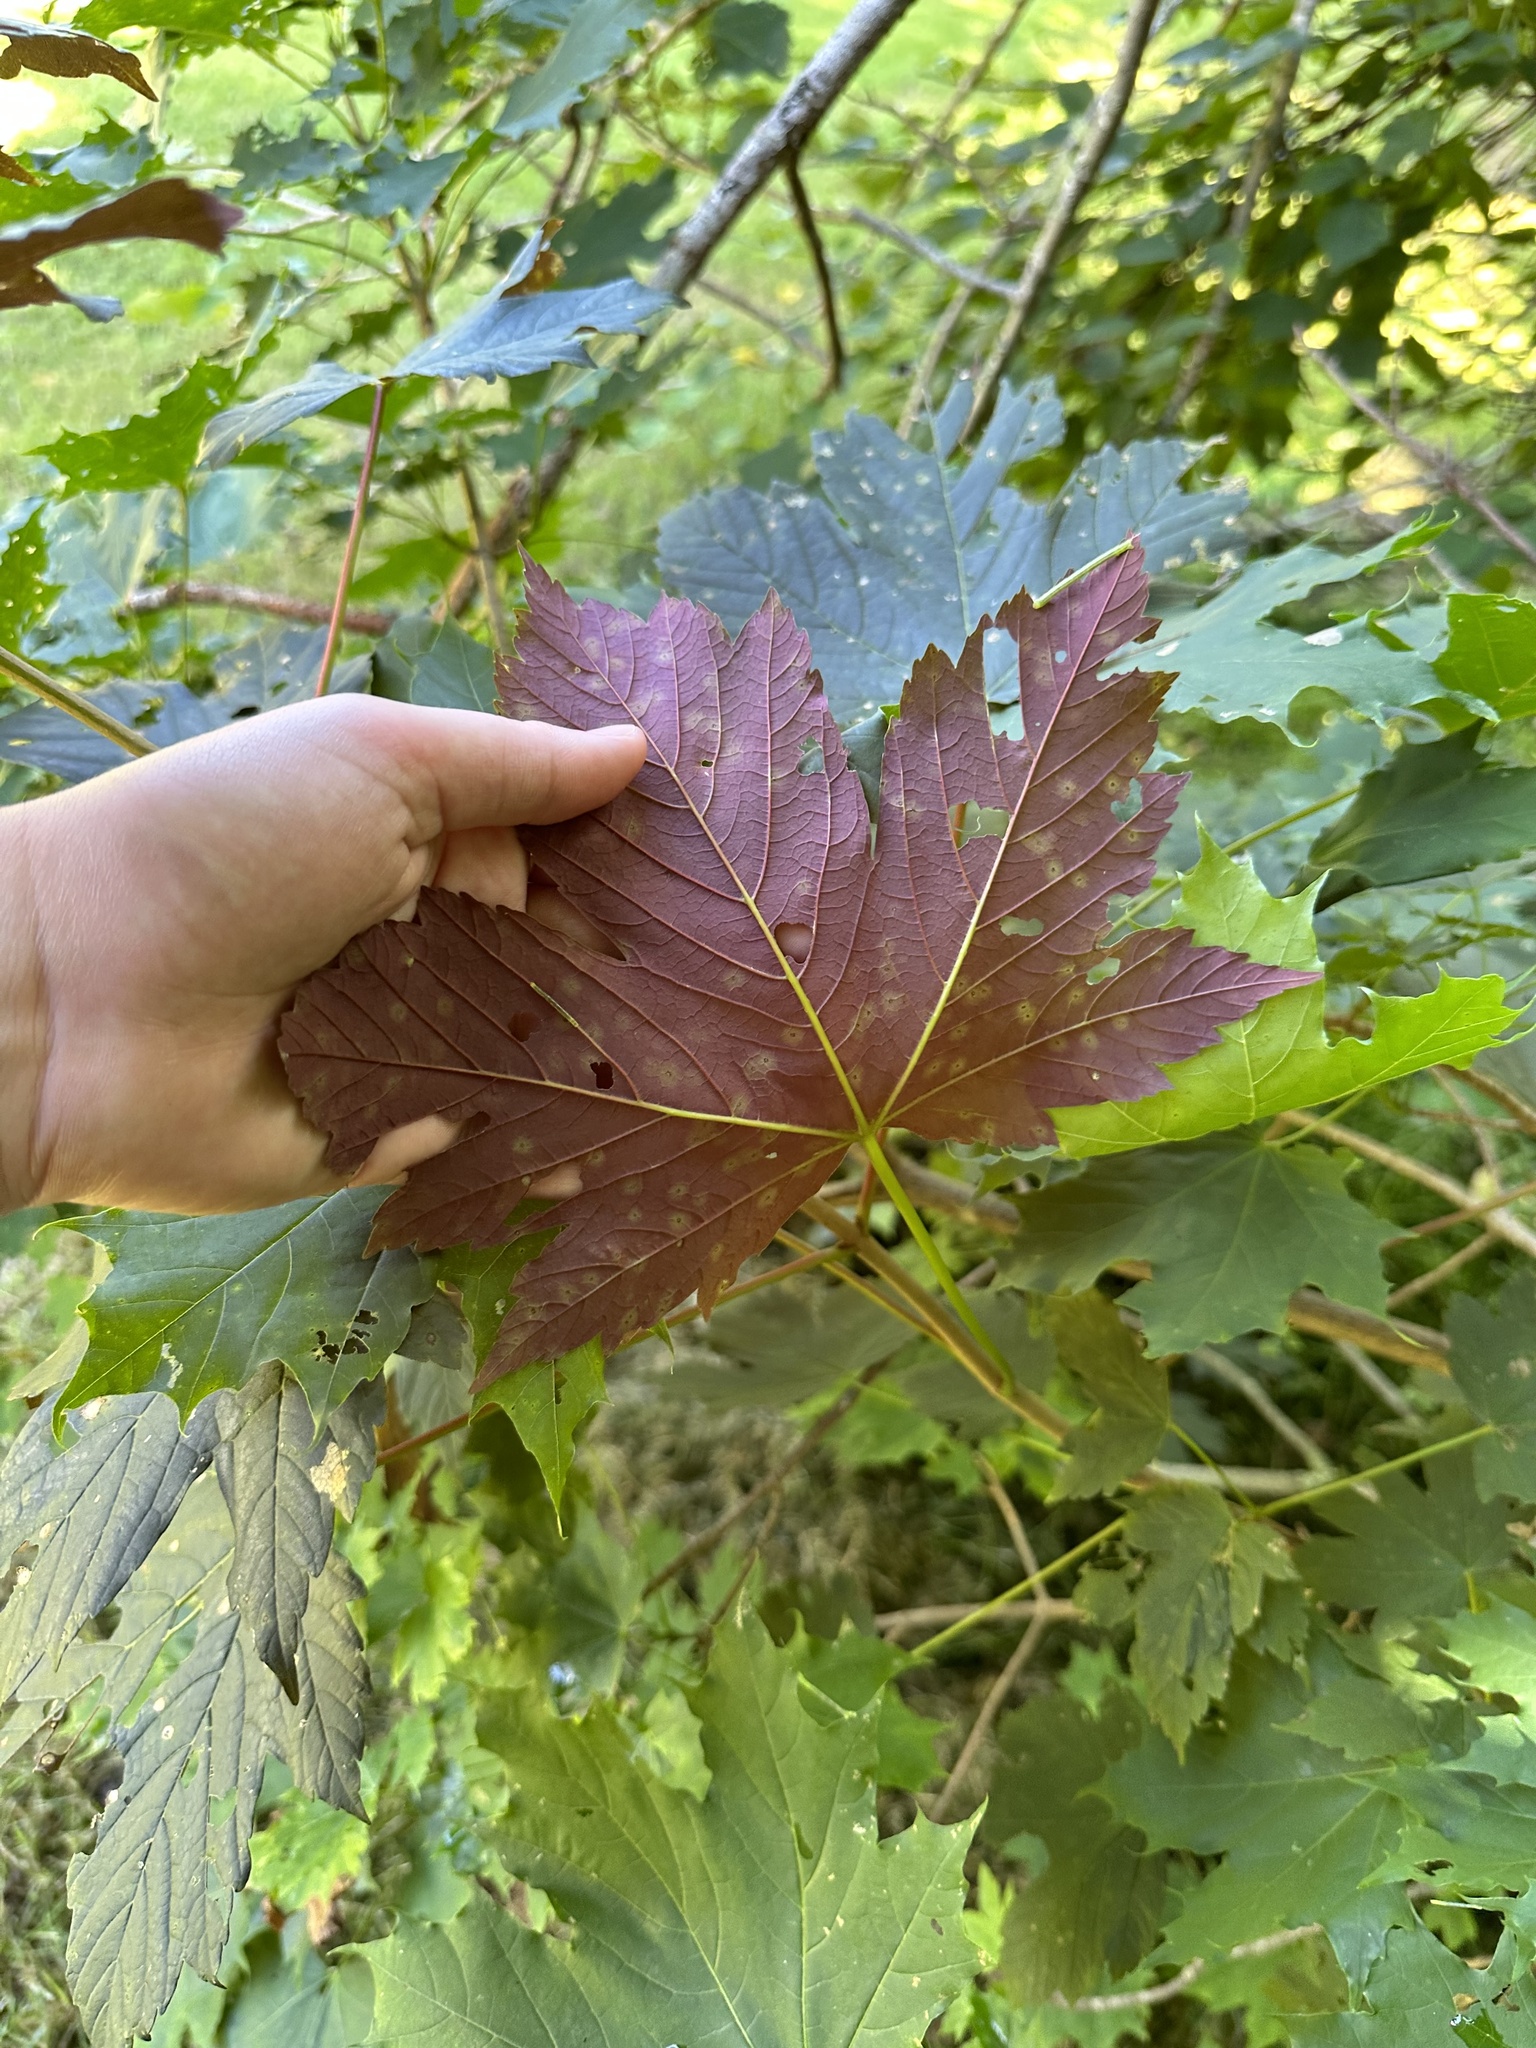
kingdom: Plantae
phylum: Tracheophyta
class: Magnoliopsida
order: Sapindales
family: Sapindaceae
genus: Acer
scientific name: Acer pseudoplatanus
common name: Sycamore
